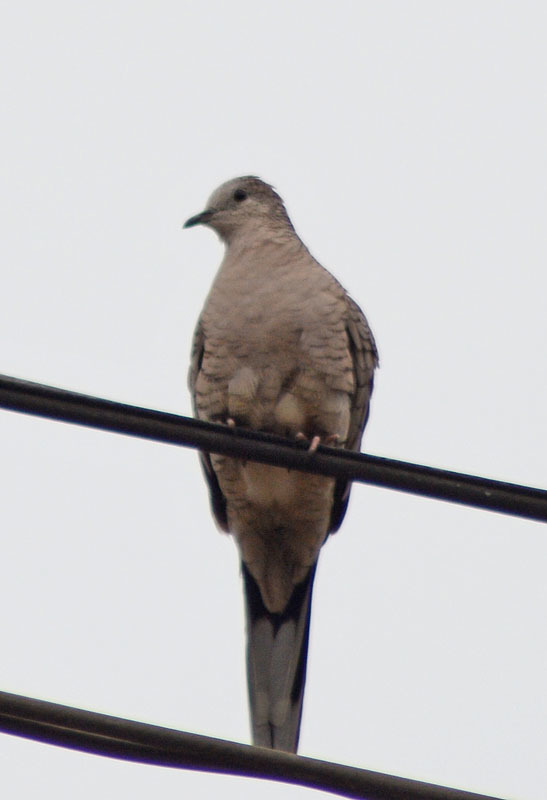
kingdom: Animalia
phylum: Chordata
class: Aves
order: Columbiformes
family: Columbidae
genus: Columbina
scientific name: Columbina inca
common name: Inca dove
